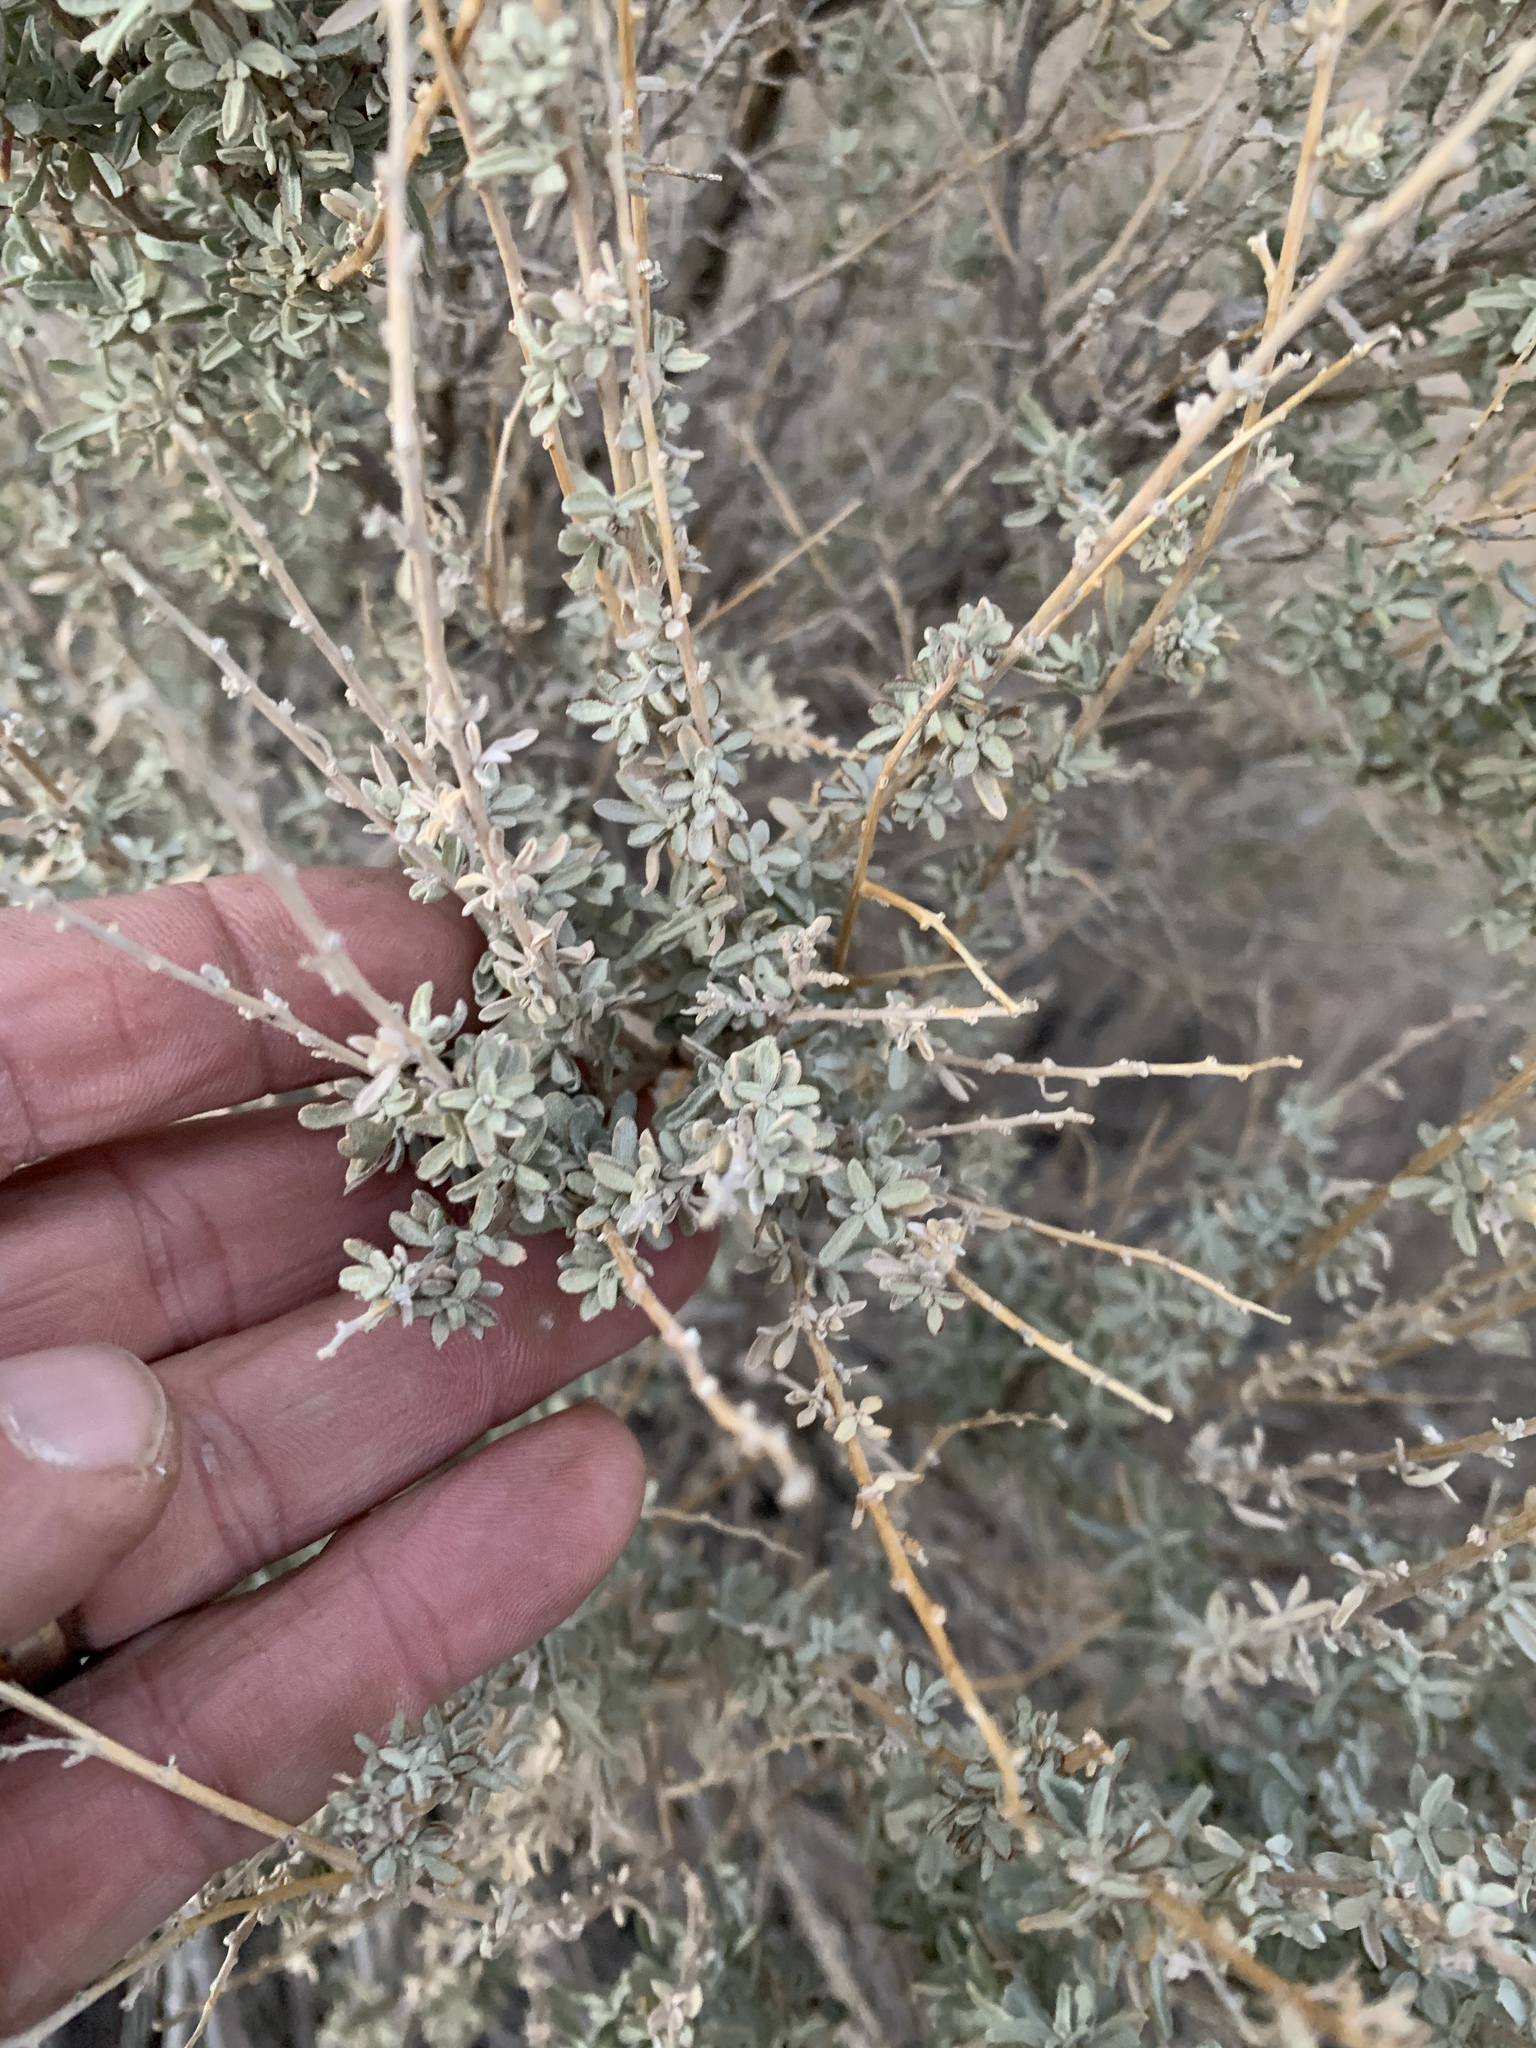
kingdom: Plantae
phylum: Tracheophyta
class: Magnoliopsida
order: Caryophyllales
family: Amaranthaceae
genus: Atriplex
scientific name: Atriplex polycarpa
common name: Desert saltbush
